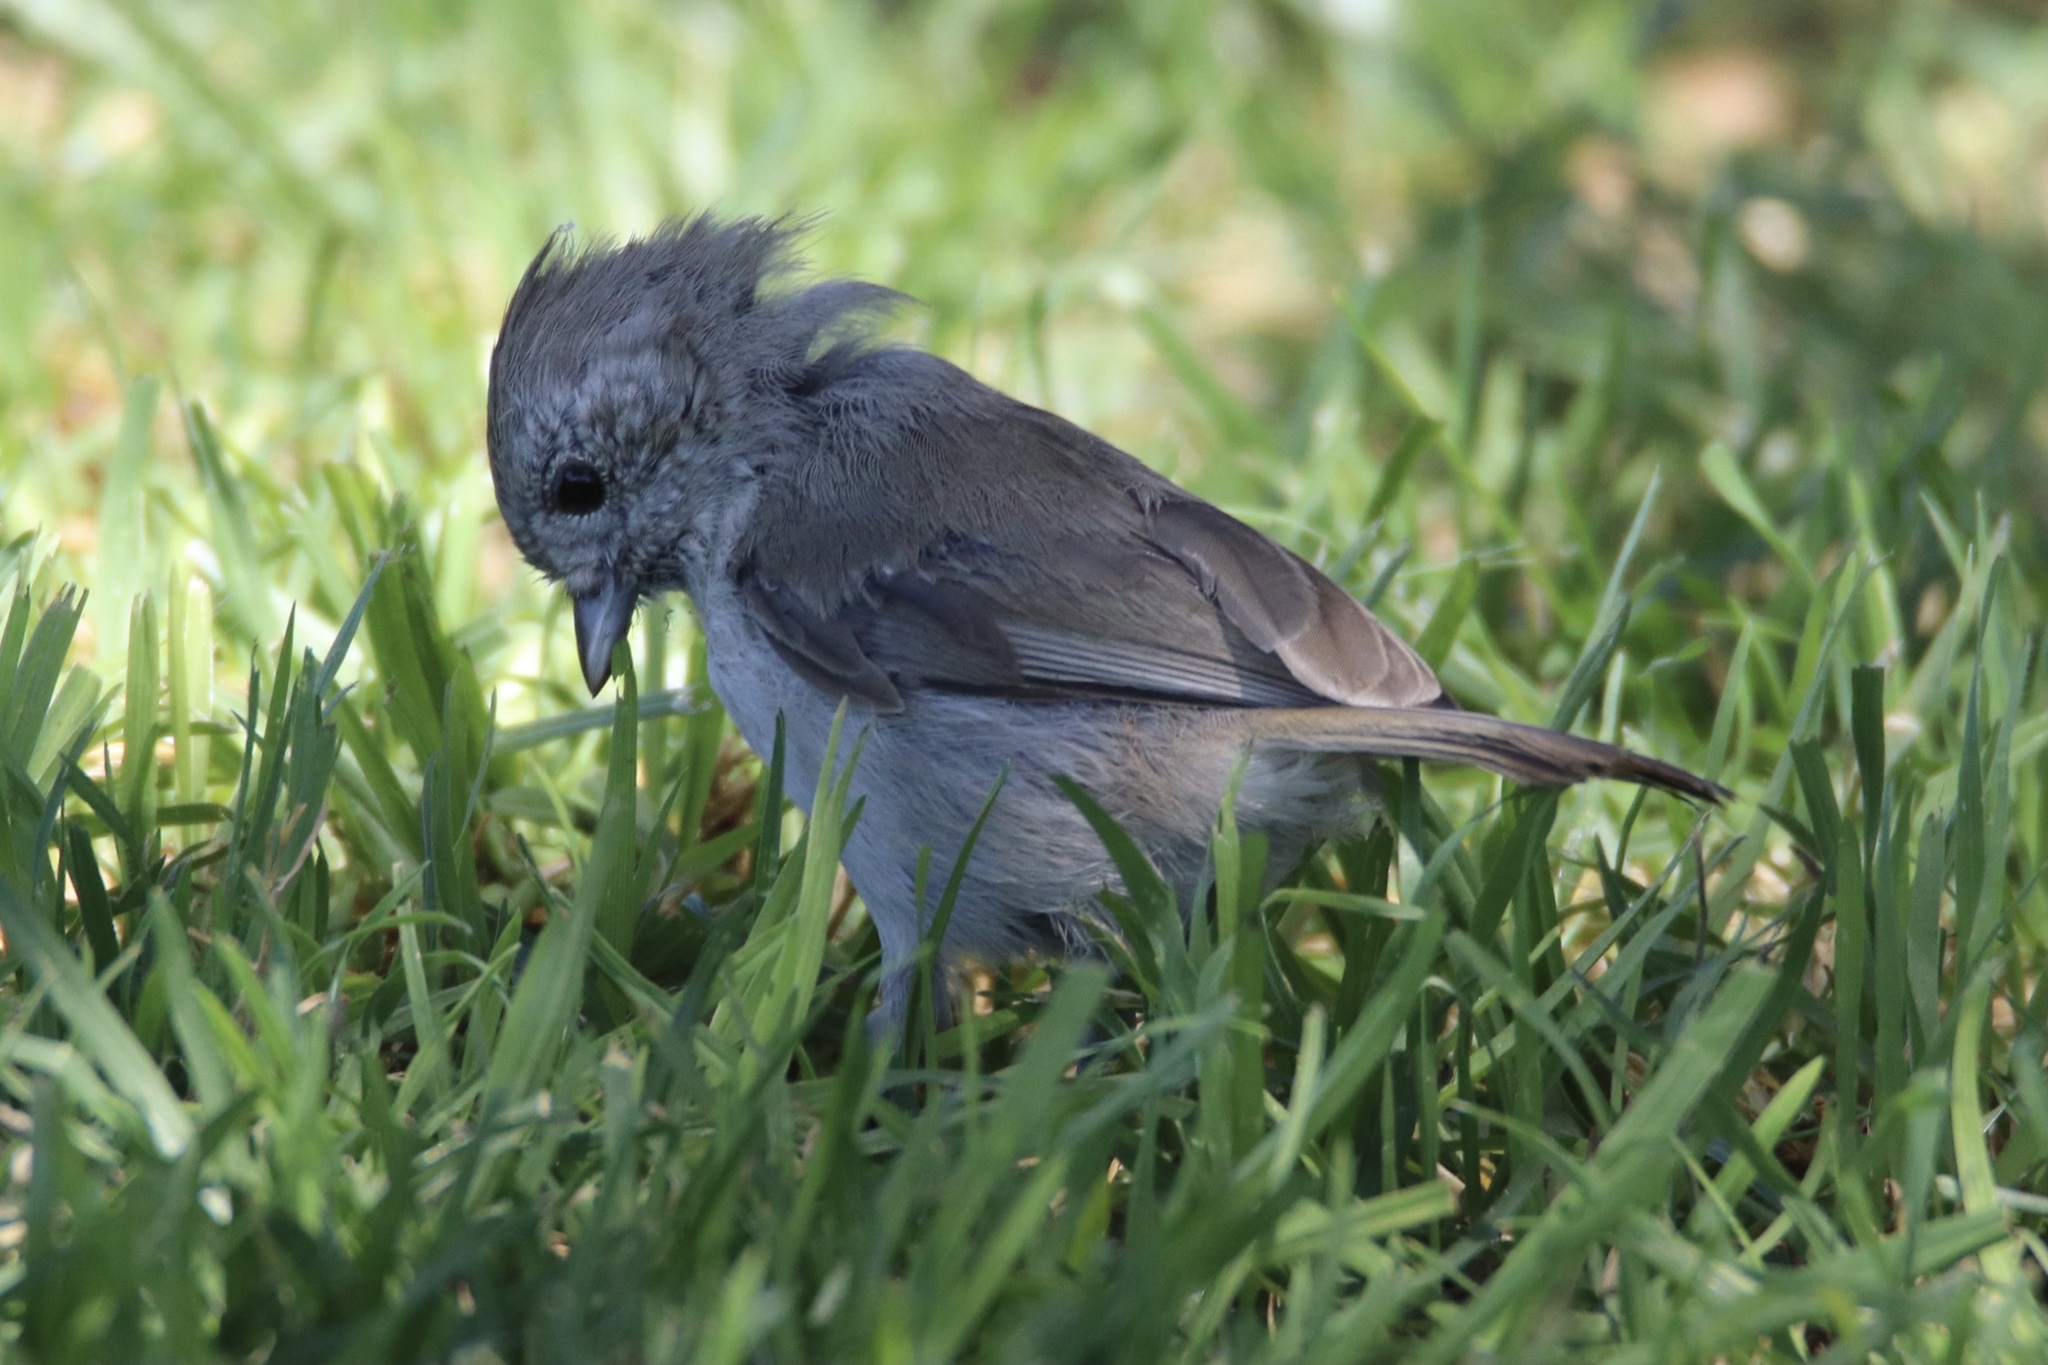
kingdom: Animalia
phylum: Chordata
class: Aves
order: Passeriformes
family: Paridae
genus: Baeolophus
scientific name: Baeolophus inornatus
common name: Oak titmouse
